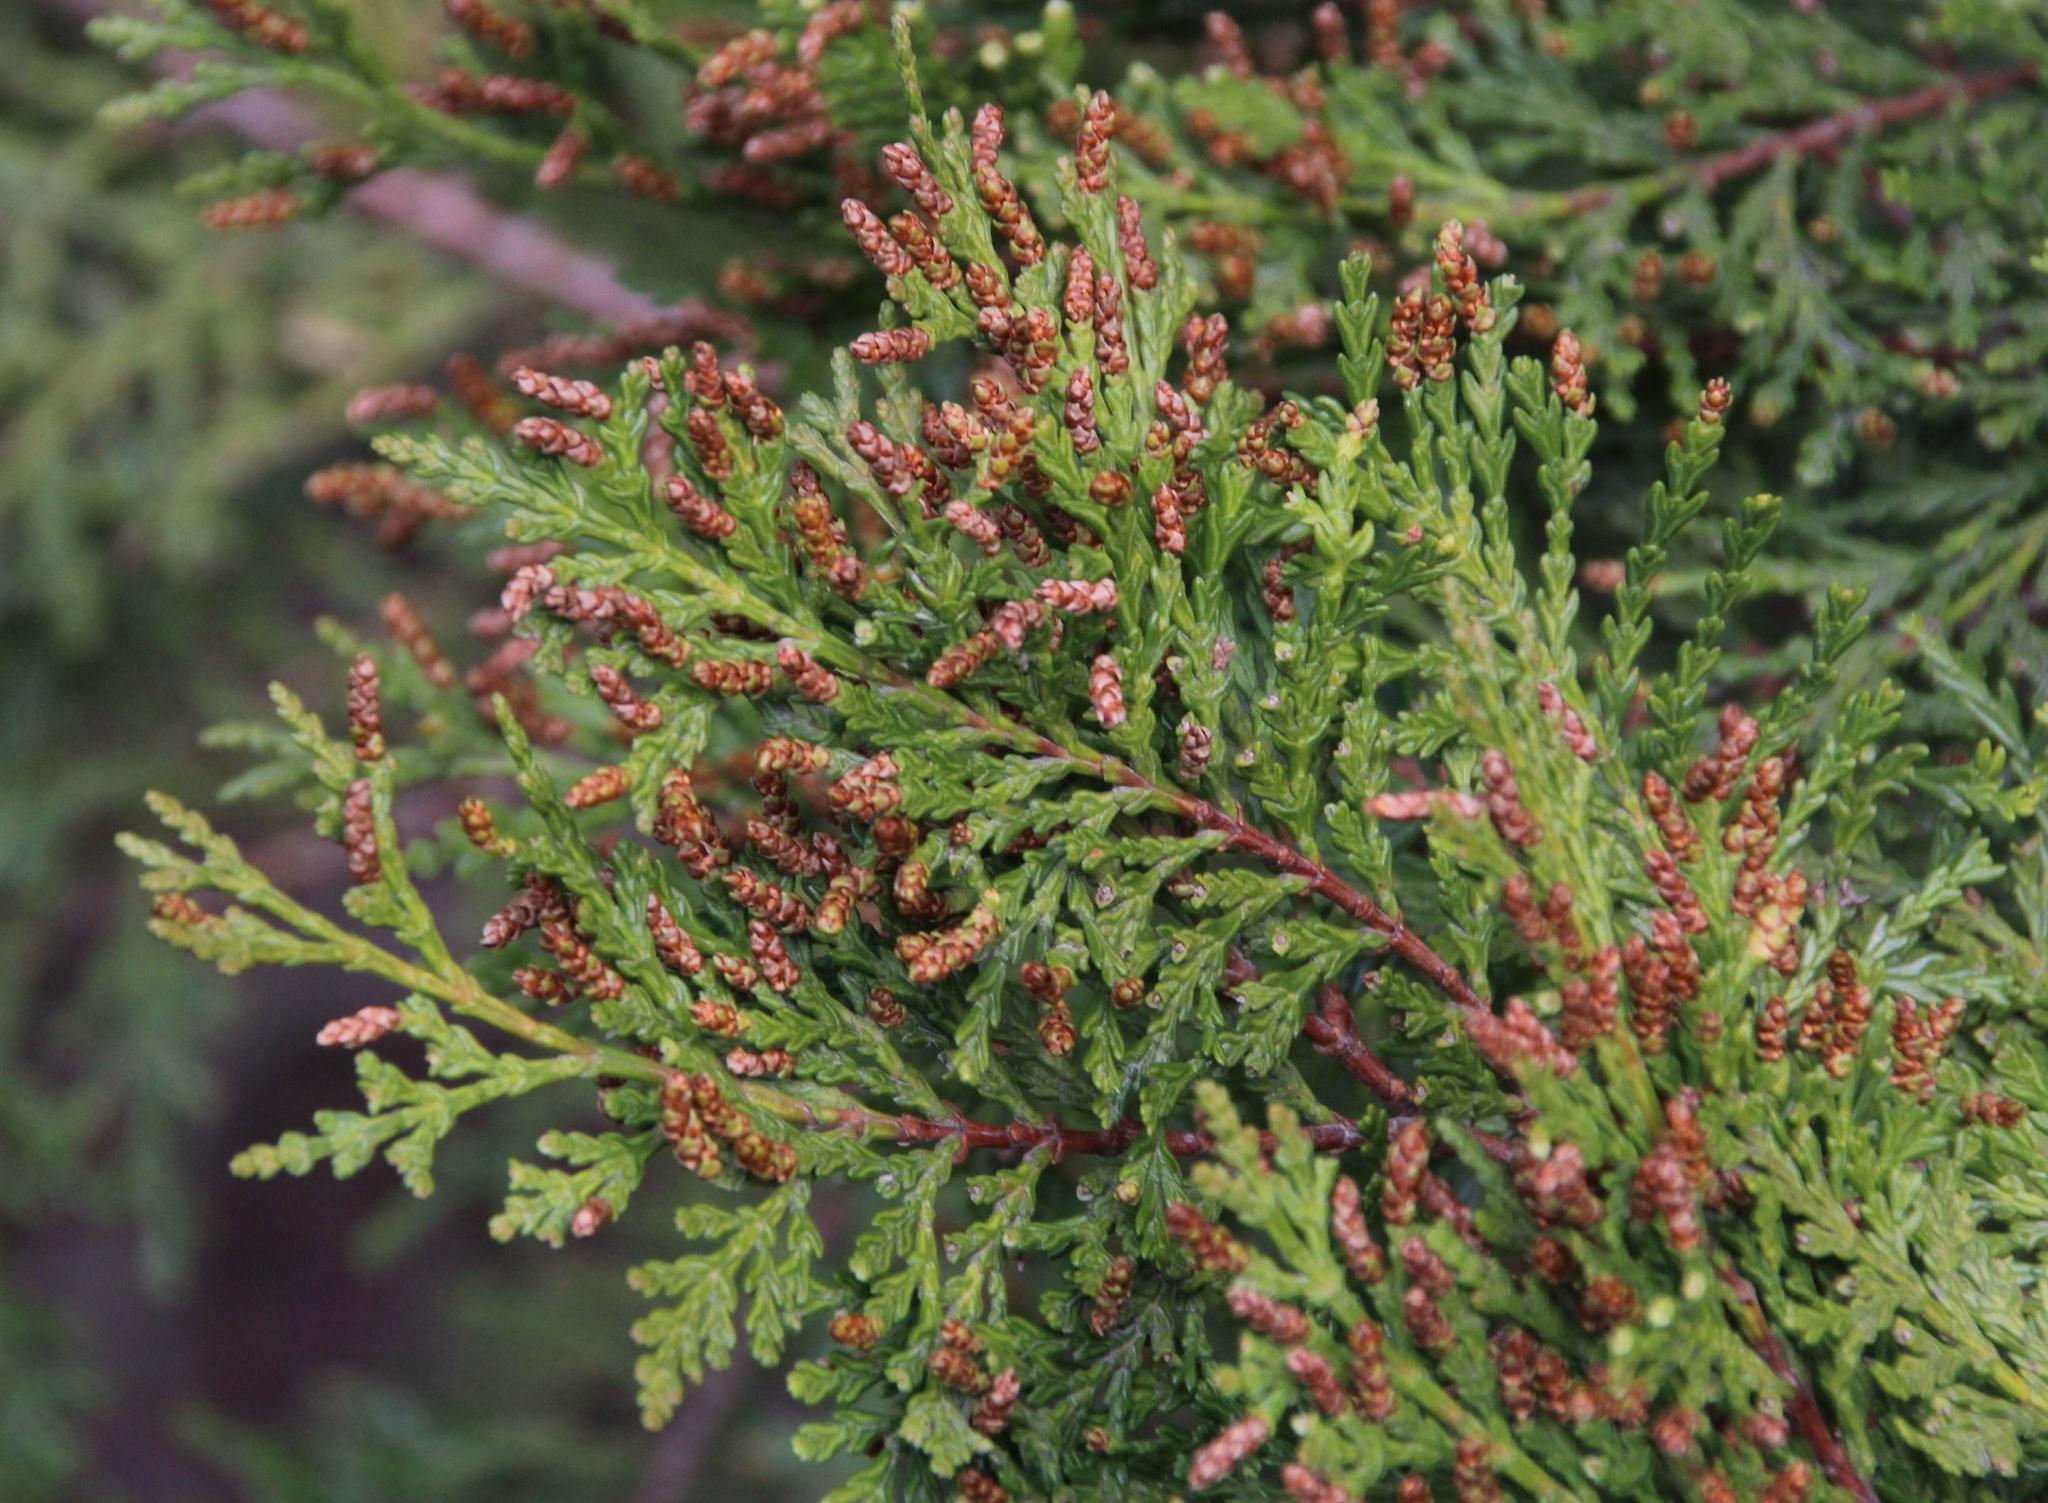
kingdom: Plantae
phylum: Tracheophyta
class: Pinopsida
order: Pinales
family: Cupressaceae
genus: Austrocedrus
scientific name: Austrocedrus chilensis
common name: Chilean incense-cedar
